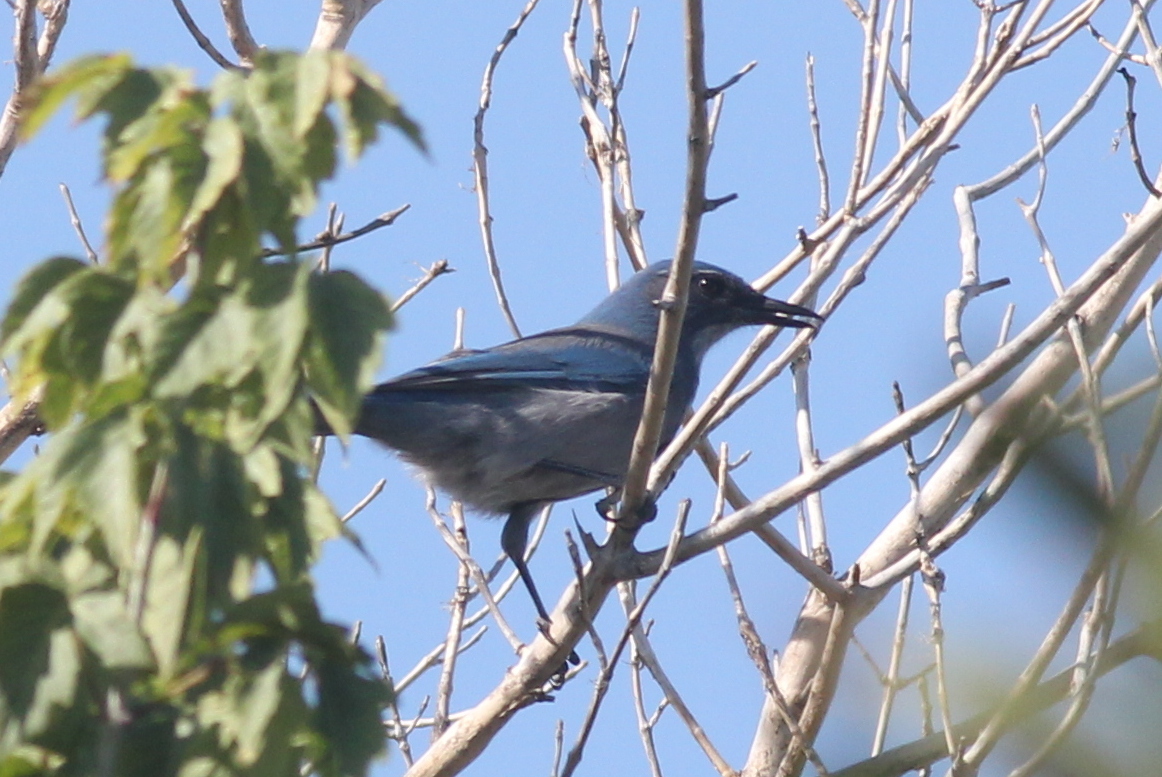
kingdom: Animalia
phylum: Chordata
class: Aves
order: Passeriformes
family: Corvidae
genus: Aphelocoma
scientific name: Aphelocoma woodhouseii
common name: Woodhouse's scrub-jay
